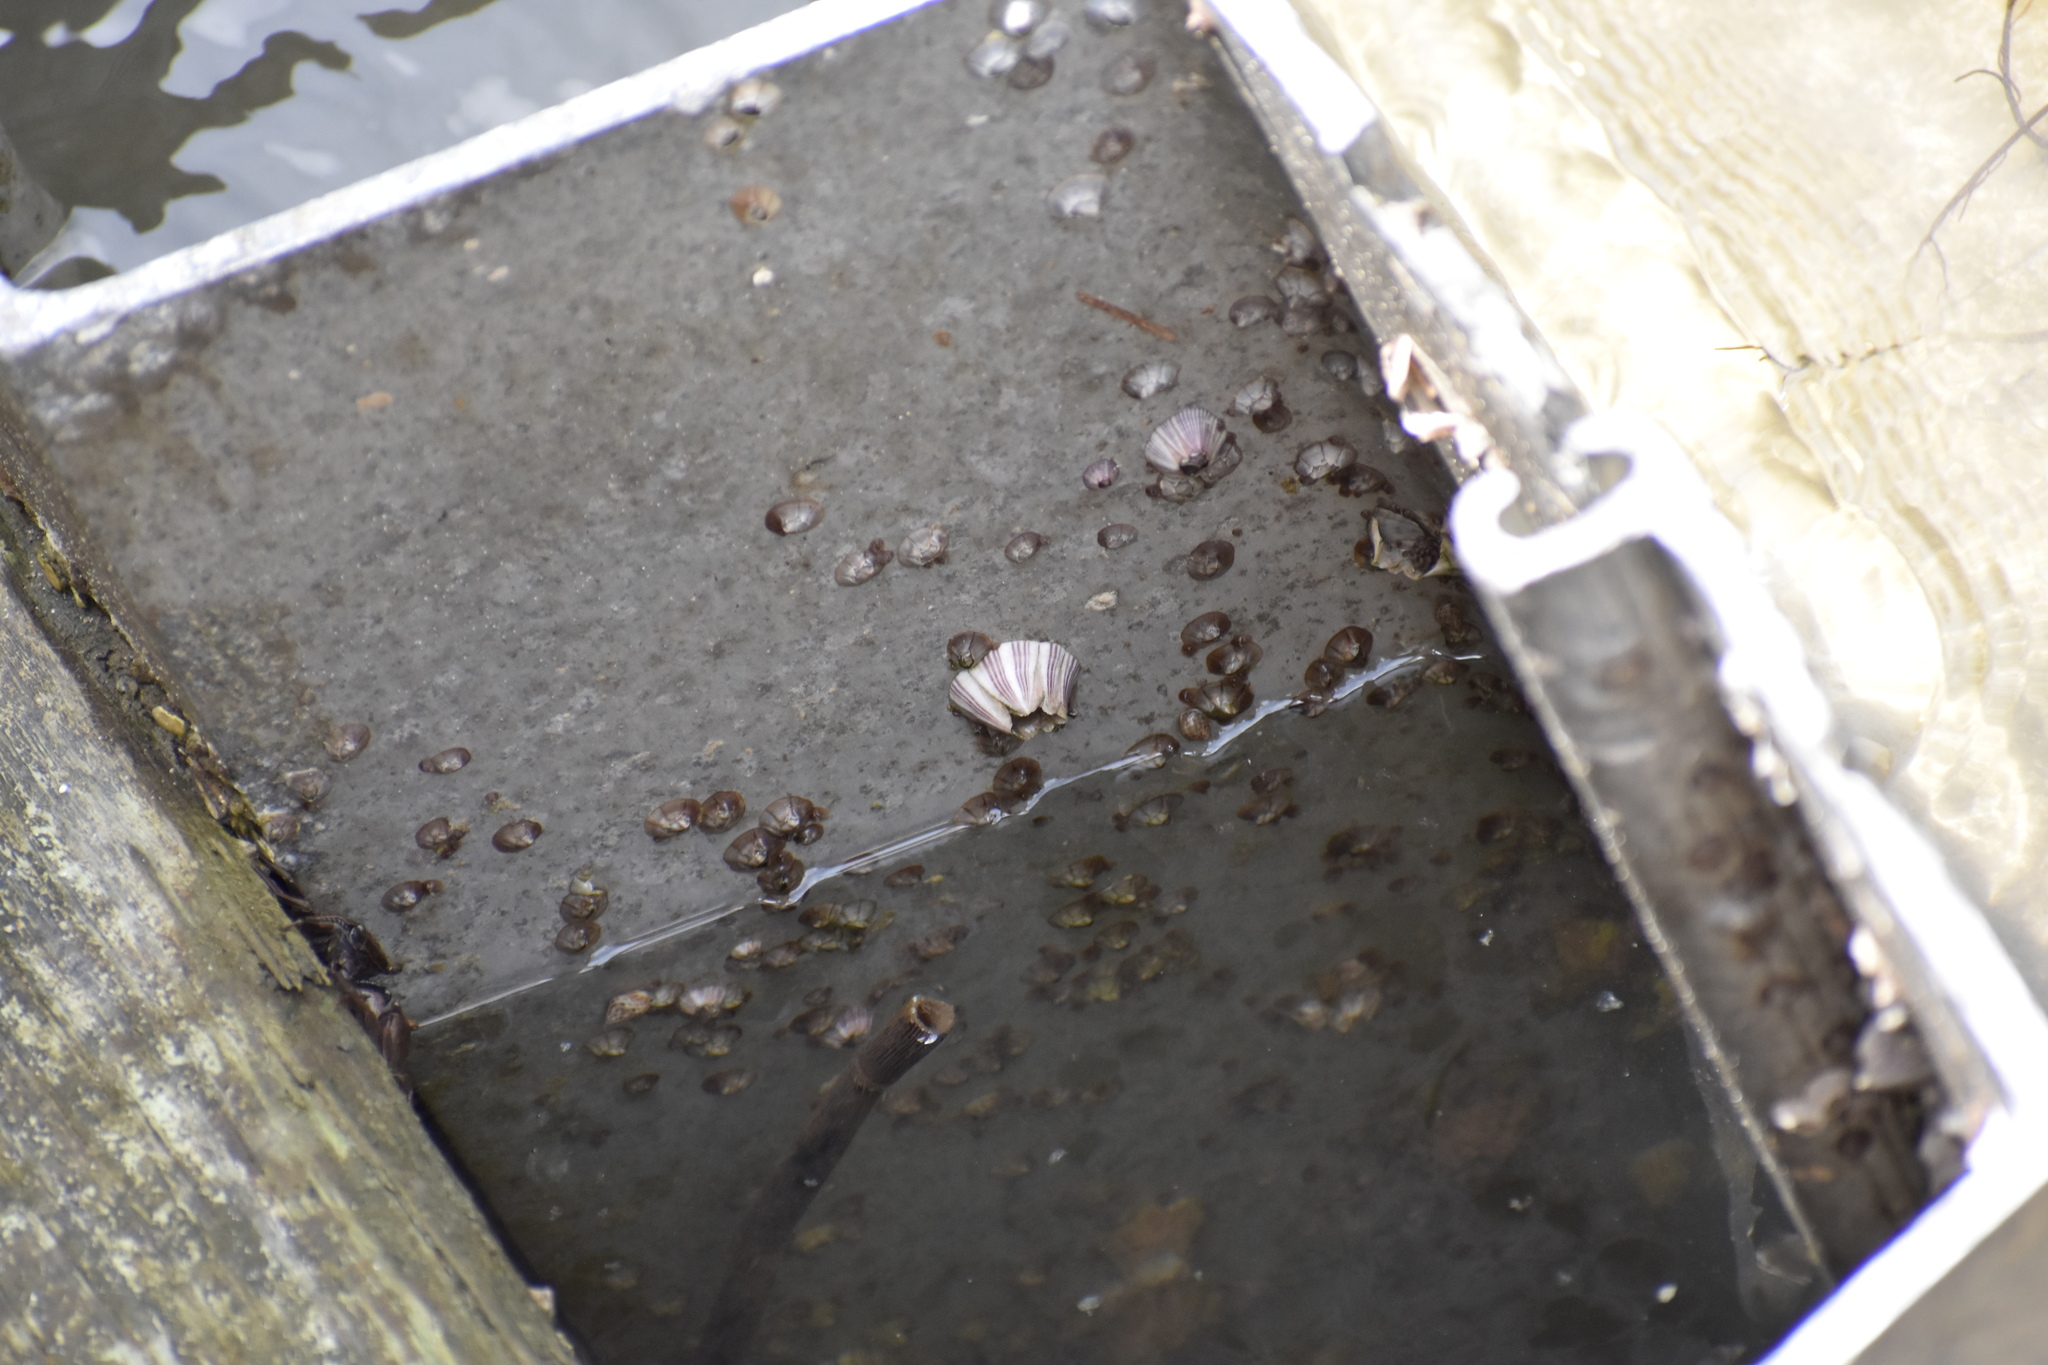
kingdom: Animalia
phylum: Arthropoda
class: Maxillopoda
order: Sessilia
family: Balanidae
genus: Amphibalanus
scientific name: Amphibalanus amphitrite
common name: Striped acorn barnacle
